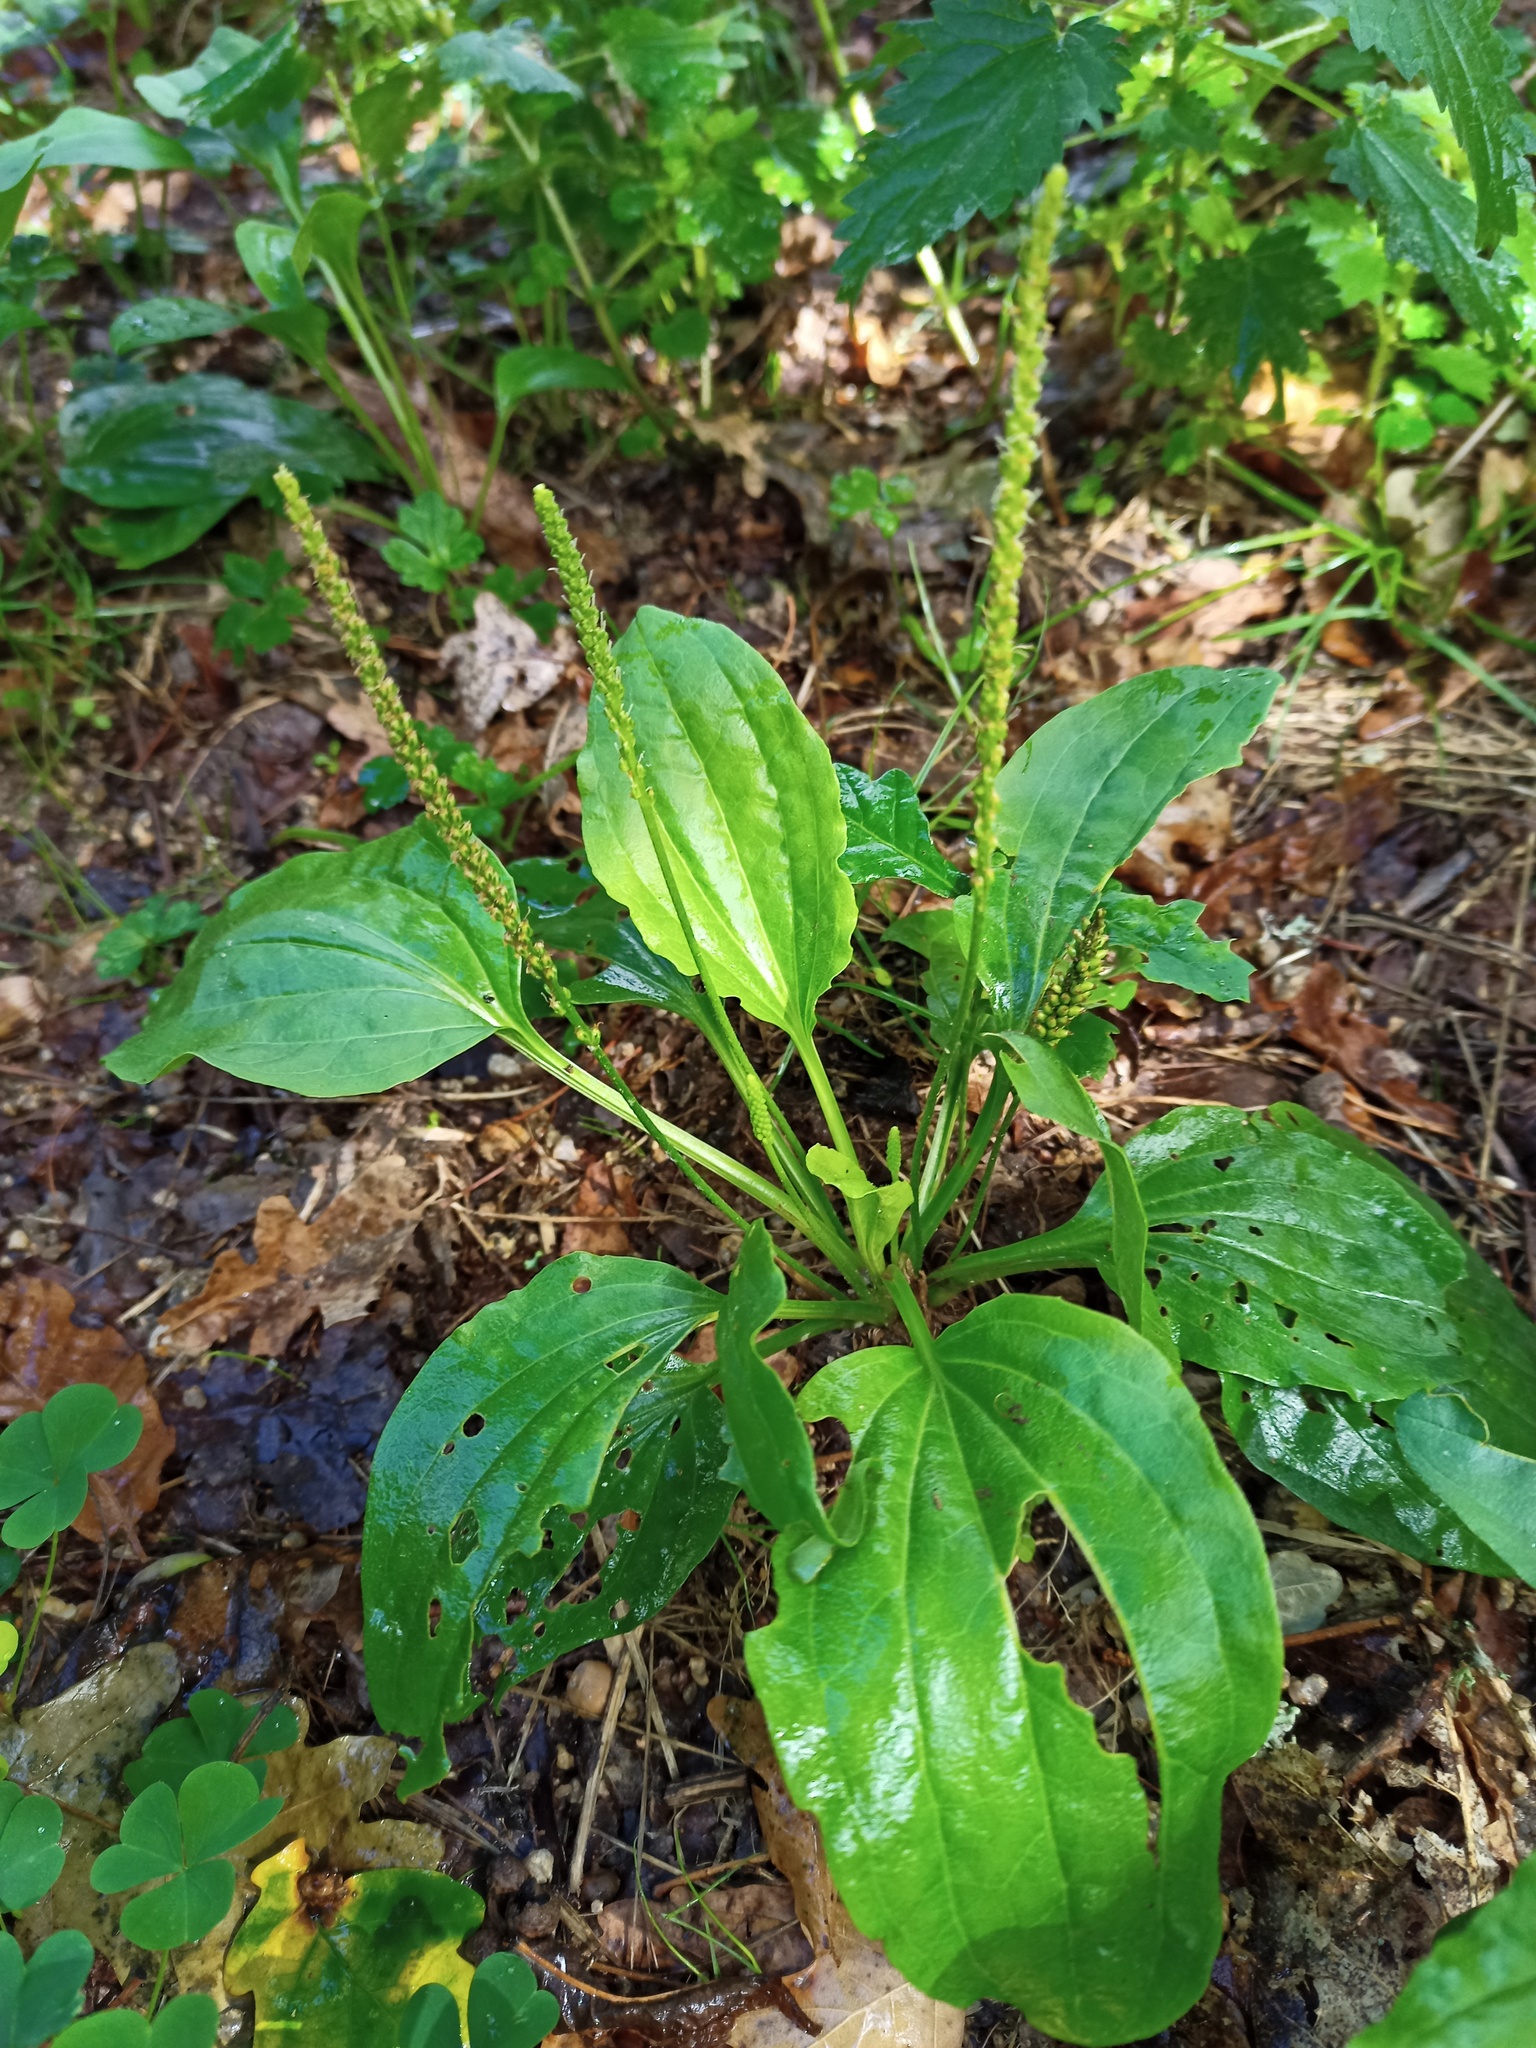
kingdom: Plantae
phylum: Tracheophyta
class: Magnoliopsida
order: Lamiales
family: Plantaginaceae
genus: Plantago
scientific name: Plantago major
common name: Common plantain
